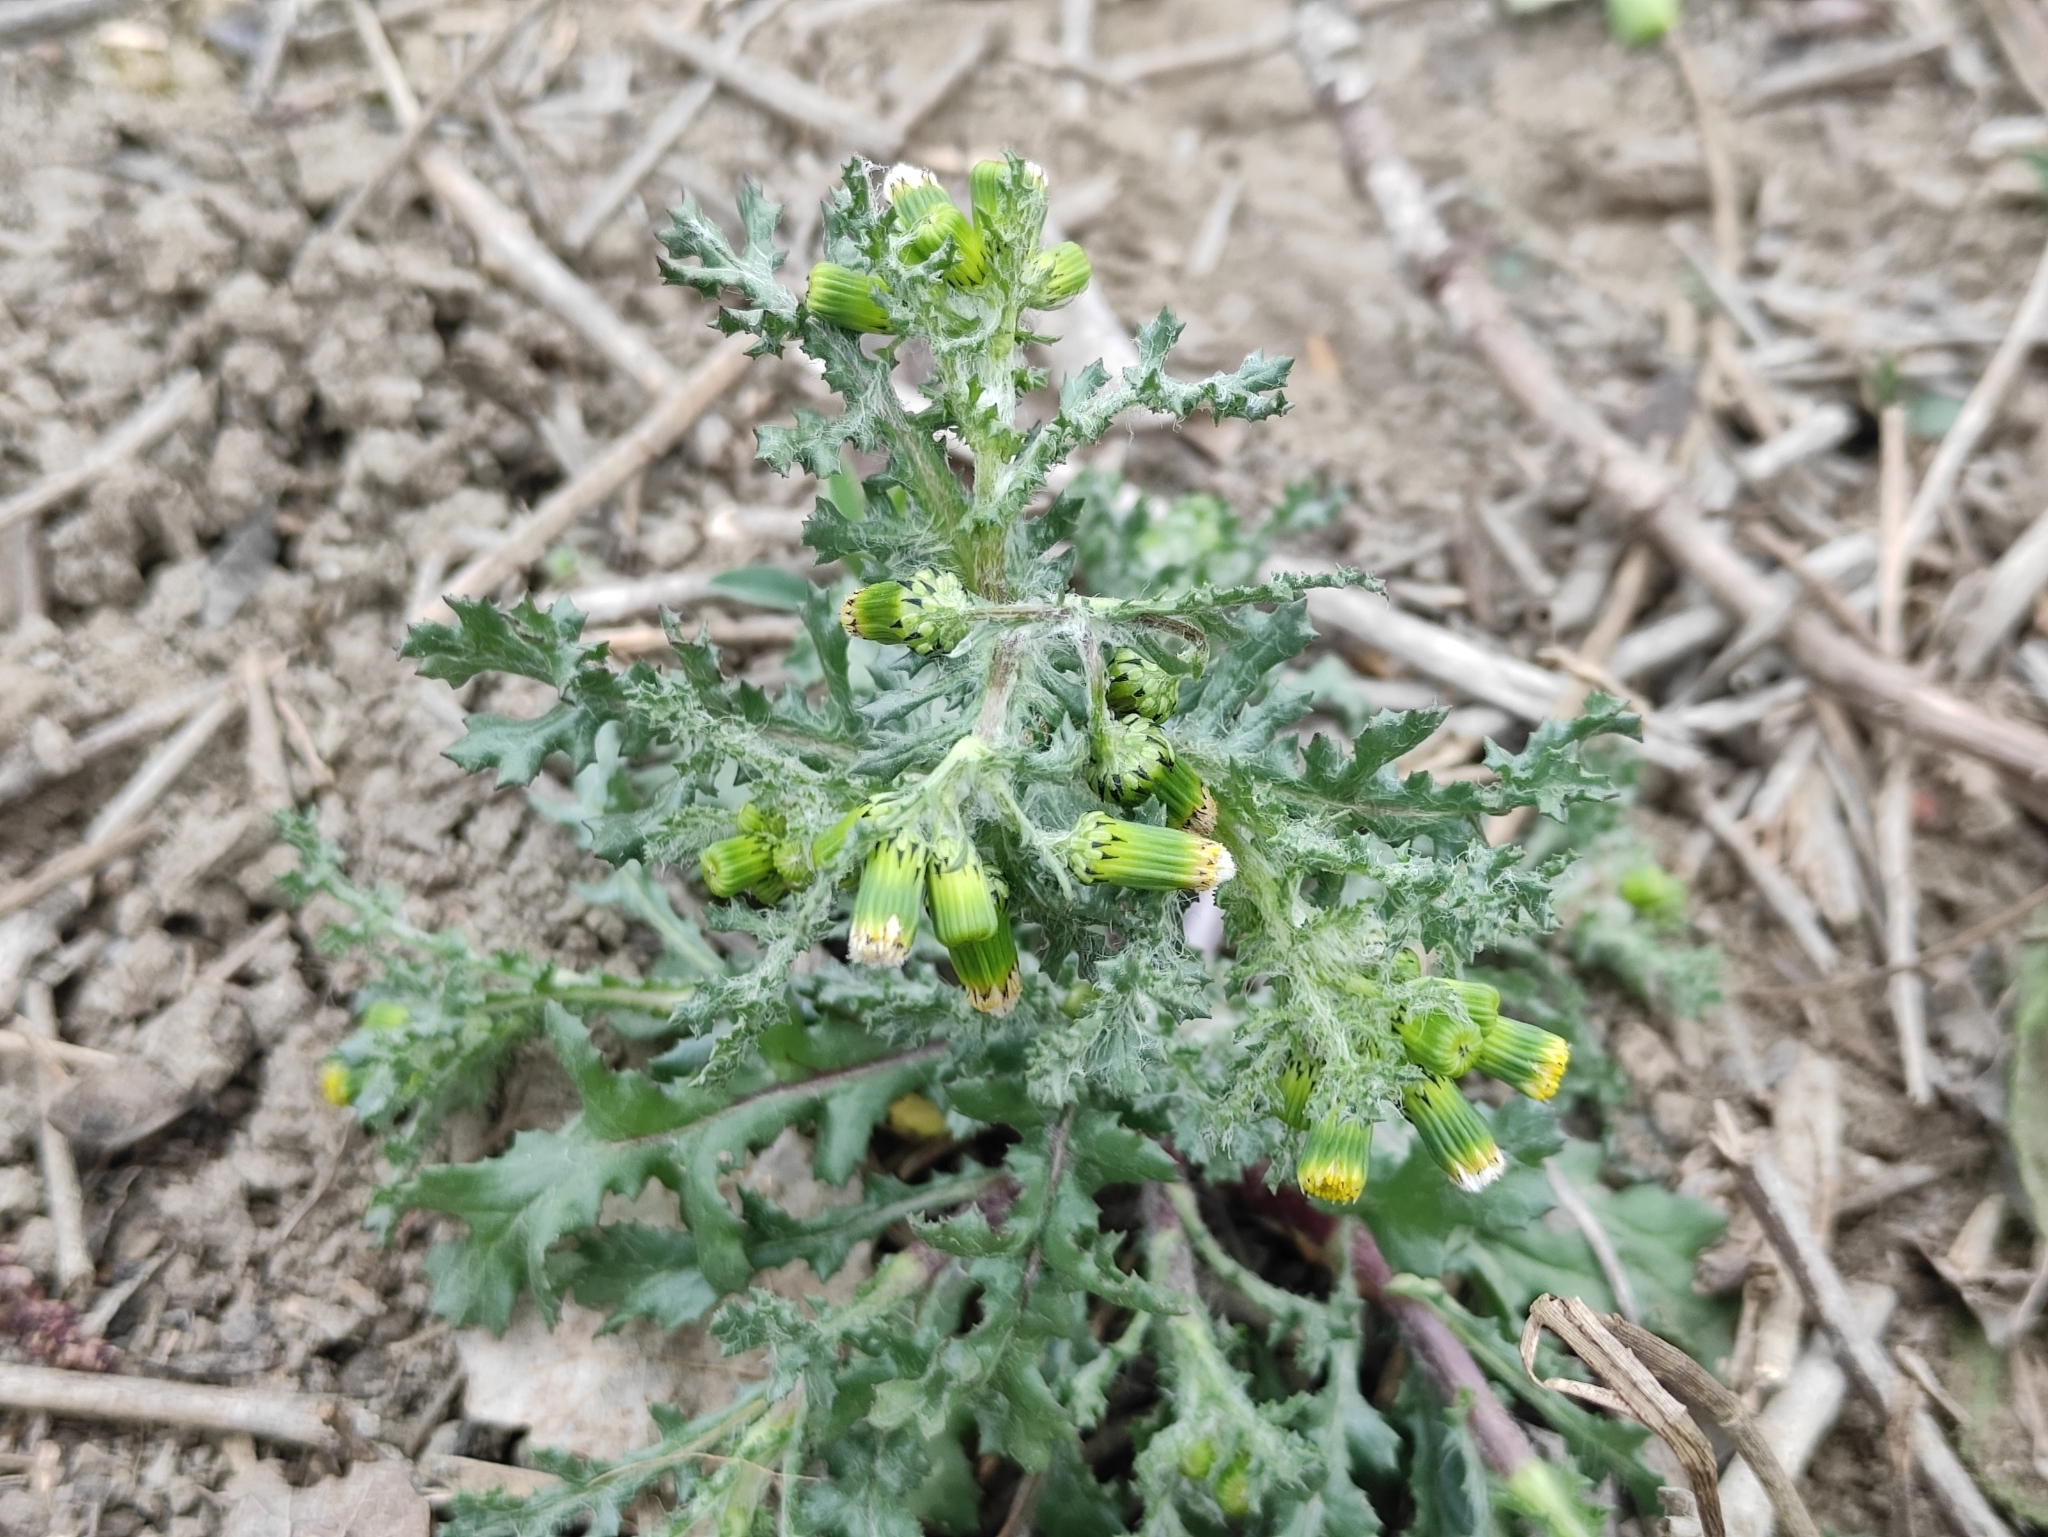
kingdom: Plantae
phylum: Tracheophyta
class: Magnoliopsida
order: Asterales
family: Asteraceae
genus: Senecio
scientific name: Senecio vulgaris
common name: Old-man-in-the-spring
